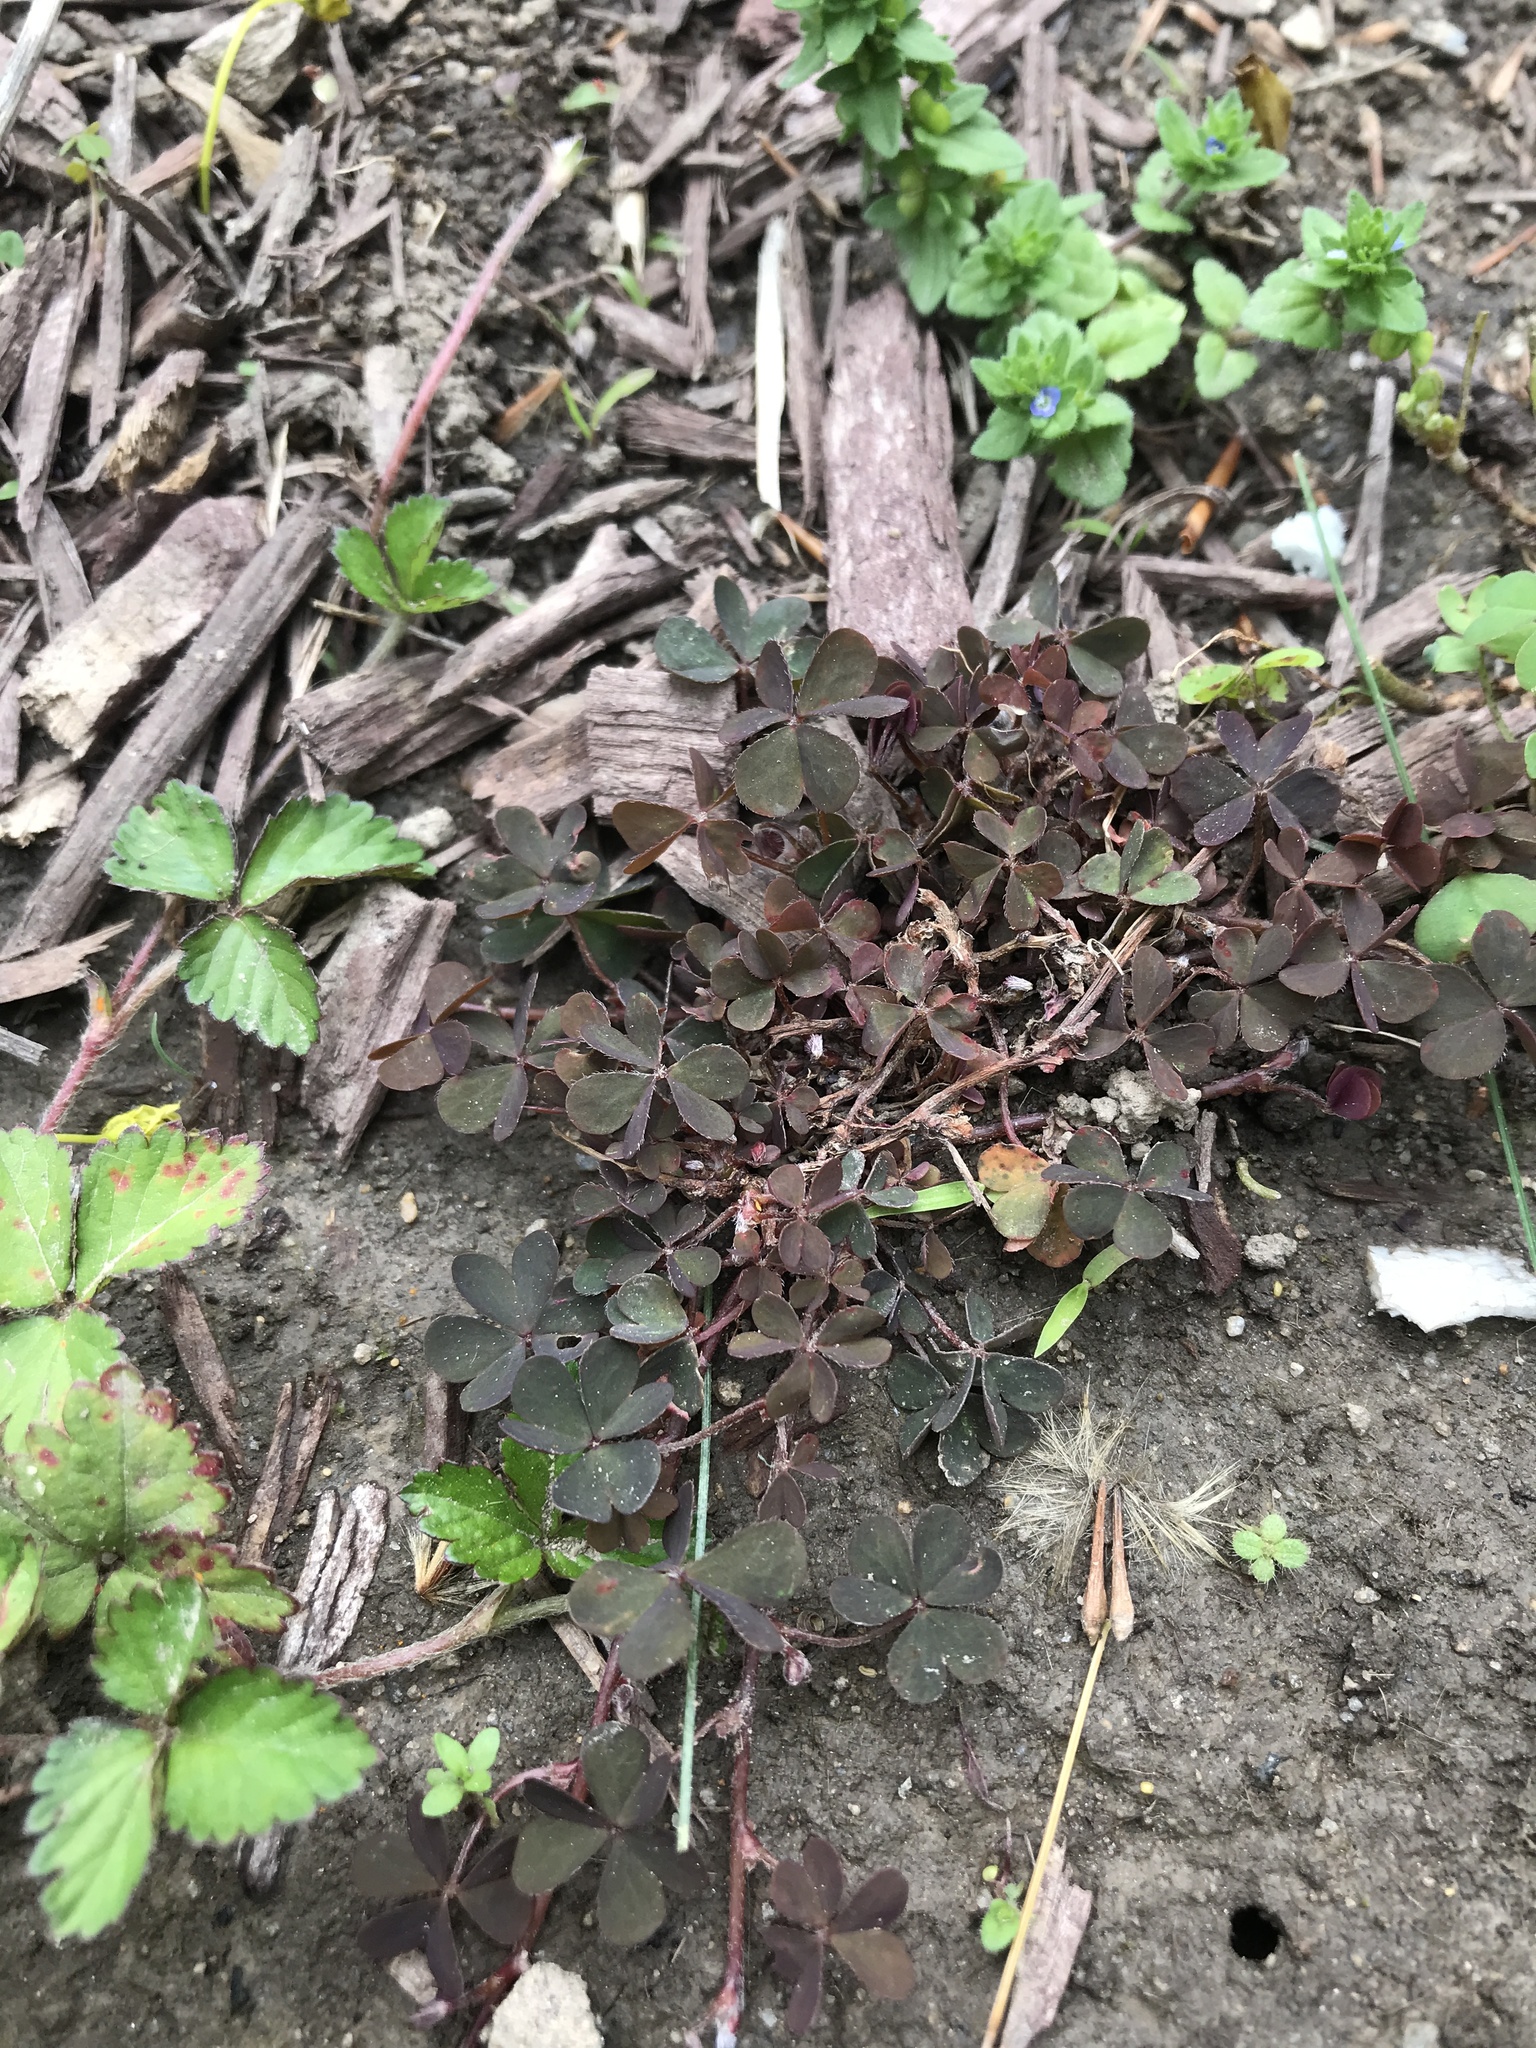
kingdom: Plantae
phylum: Tracheophyta
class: Magnoliopsida
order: Oxalidales
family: Oxalidaceae
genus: Oxalis
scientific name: Oxalis corniculata
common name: Procumbent yellow-sorrel
